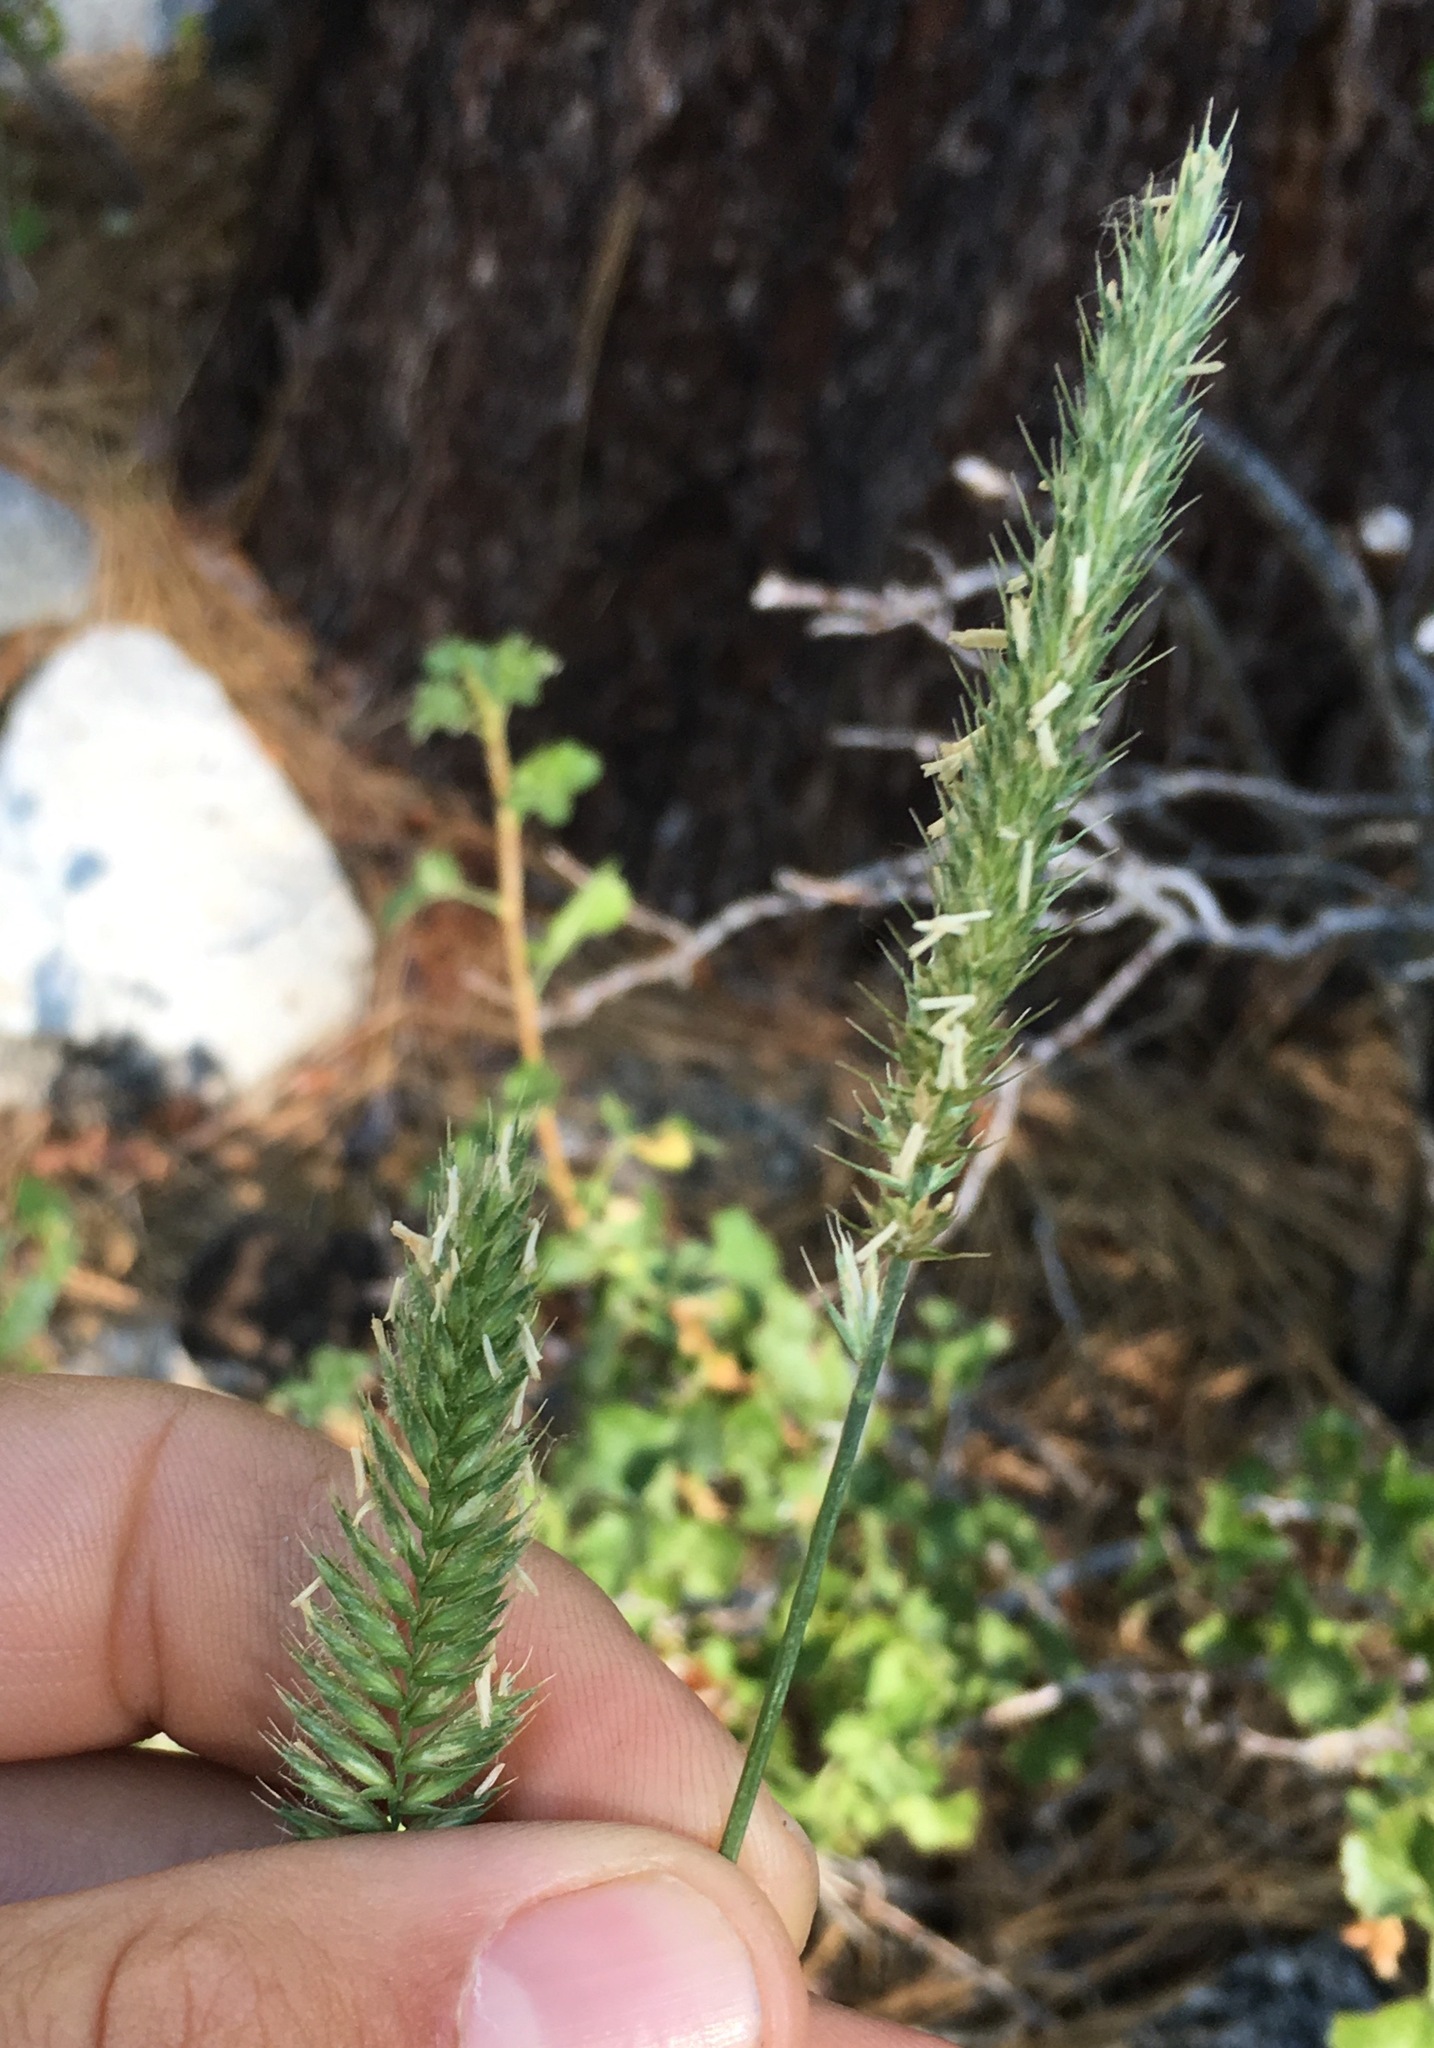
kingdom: Plantae
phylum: Tracheophyta
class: Liliopsida
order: Poales
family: Poaceae
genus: Agropyron
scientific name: Agropyron cristatum
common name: Crested wheatgrass
